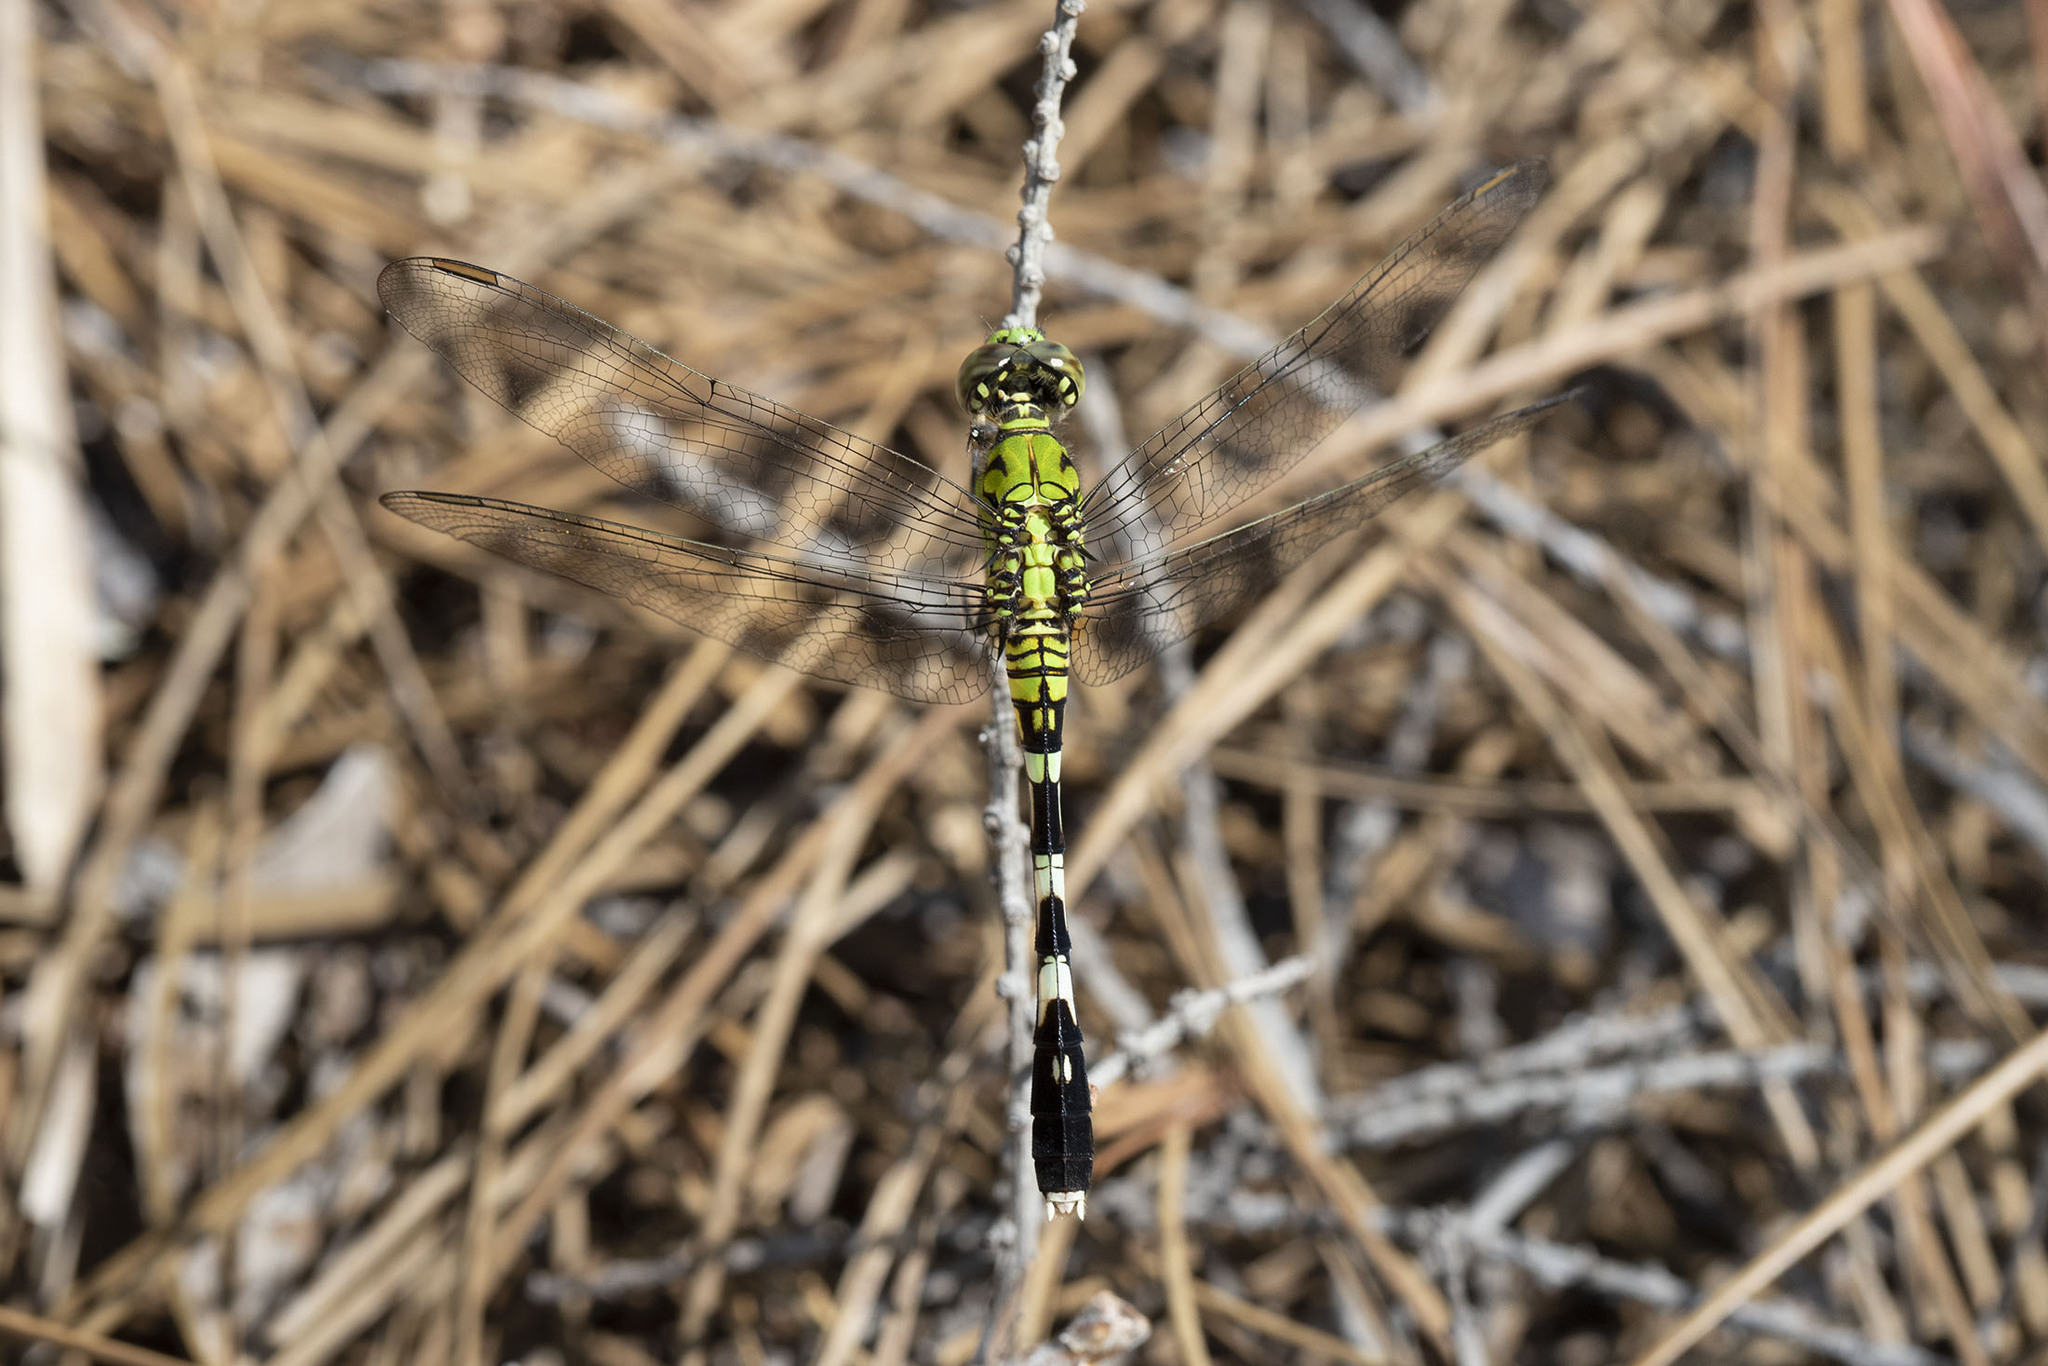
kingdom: Animalia
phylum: Arthropoda
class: Insecta
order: Odonata
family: Libellulidae
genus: Erythemis
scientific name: Erythemis simplicicollis
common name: Eastern pondhawk
